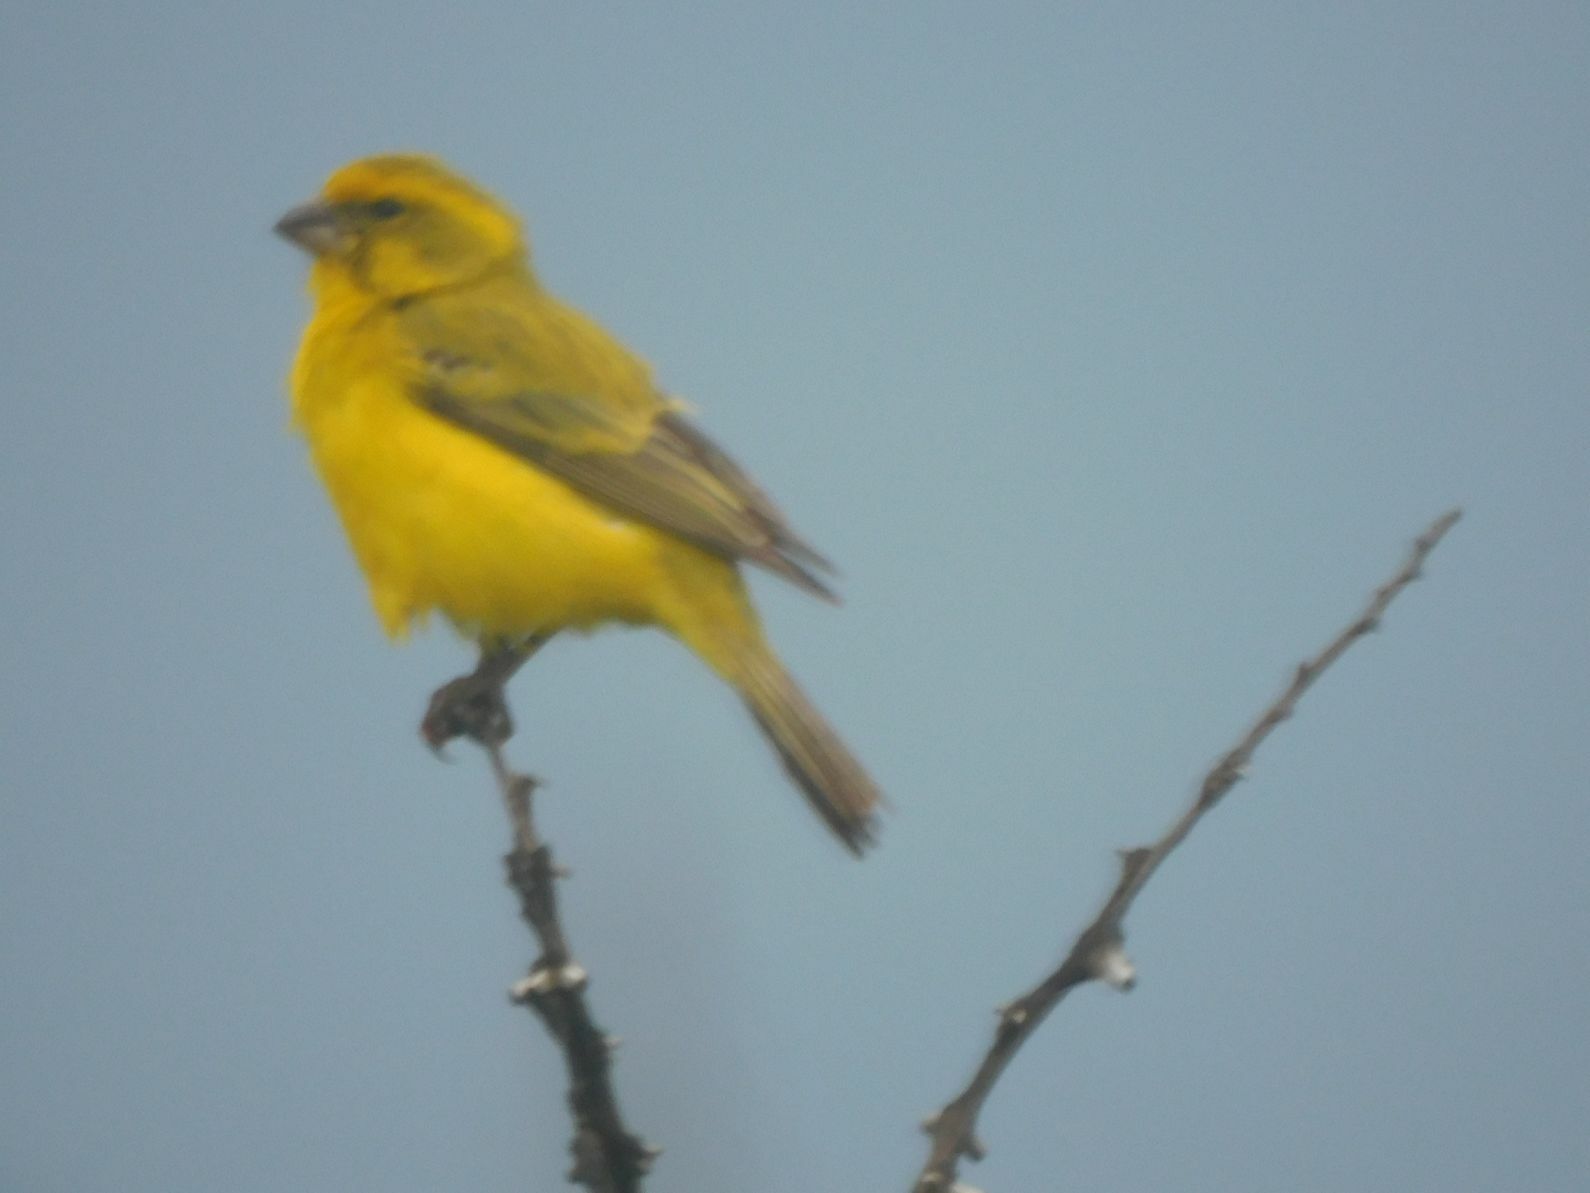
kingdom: Animalia
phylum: Chordata
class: Aves
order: Passeriformes
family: Fringillidae
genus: Crithagra
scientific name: Crithagra flaviventris
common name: Yellow canary
